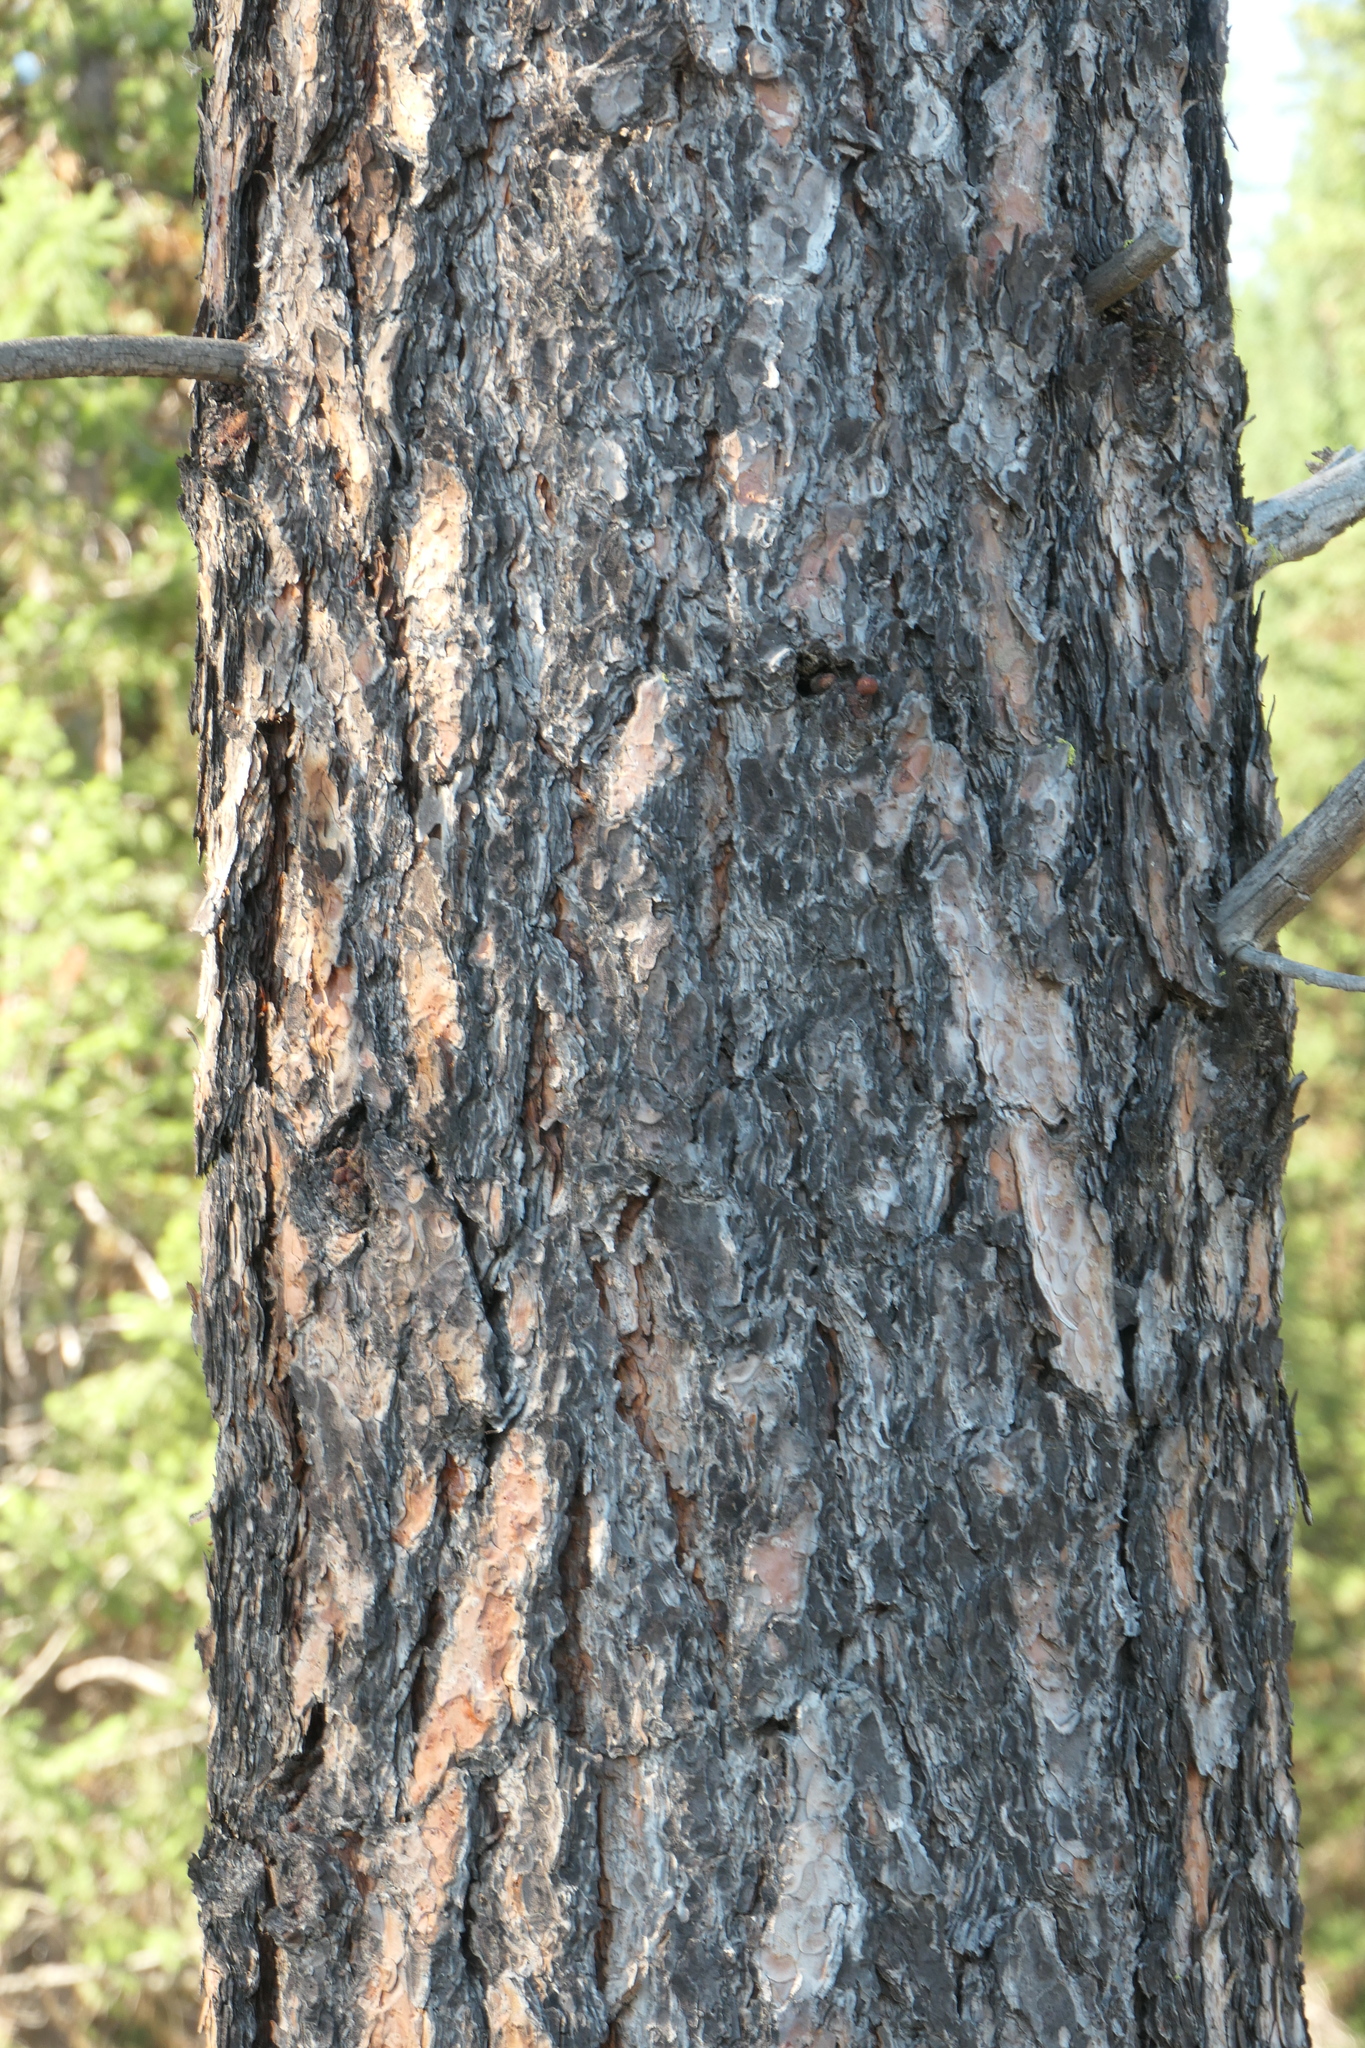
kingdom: Plantae
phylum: Tracheophyta
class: Pinopsida
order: Pinales
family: Pinaceae
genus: Pinus
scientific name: Pinus ponderosa
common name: Western yellow-pine
